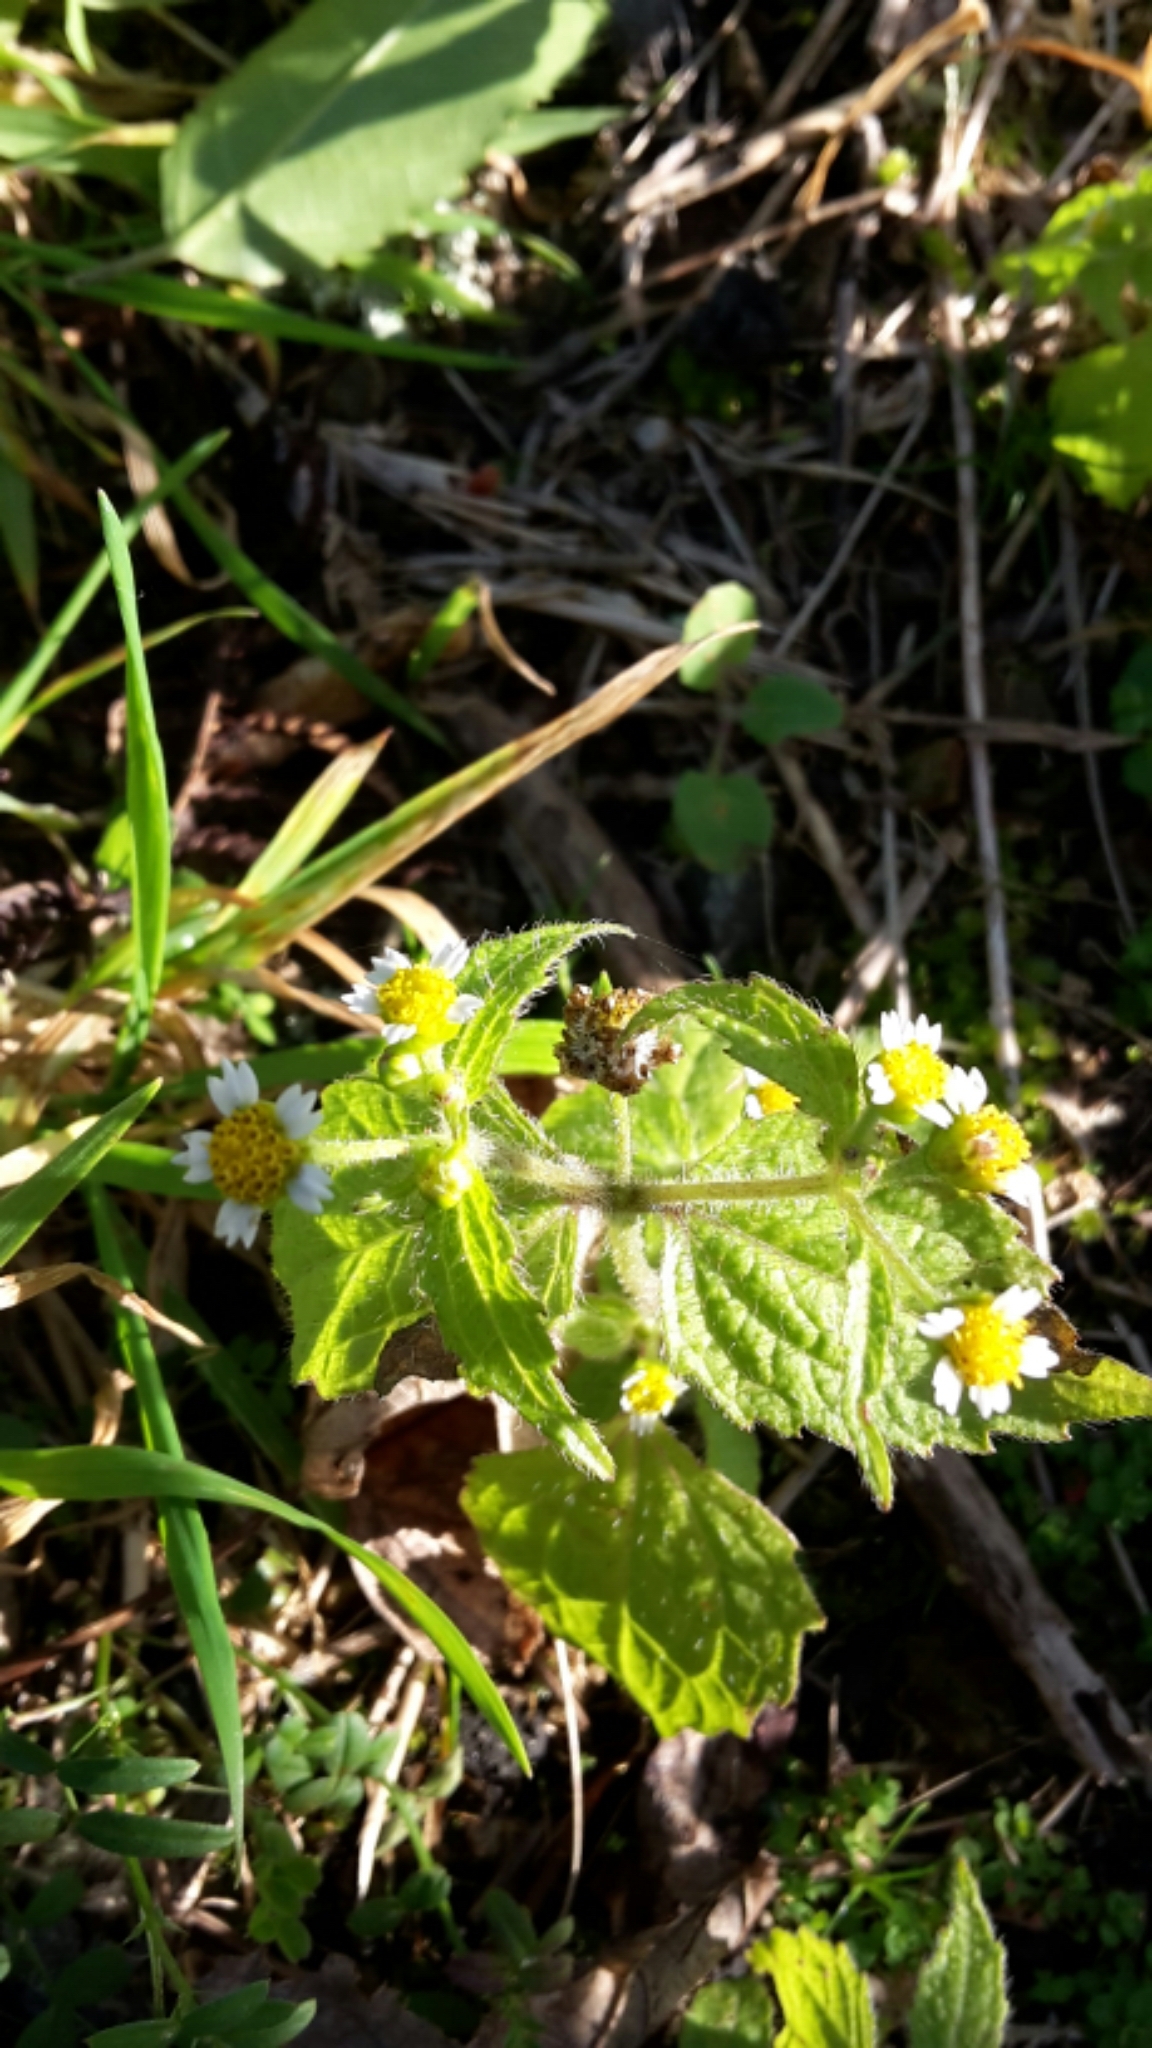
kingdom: Plantae
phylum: Tracheophyta
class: Magnoliopsida
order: Asterales
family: Asteraceae
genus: Galinsoga
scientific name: Galinsoga quadriradiata
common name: Shaggy soldier
